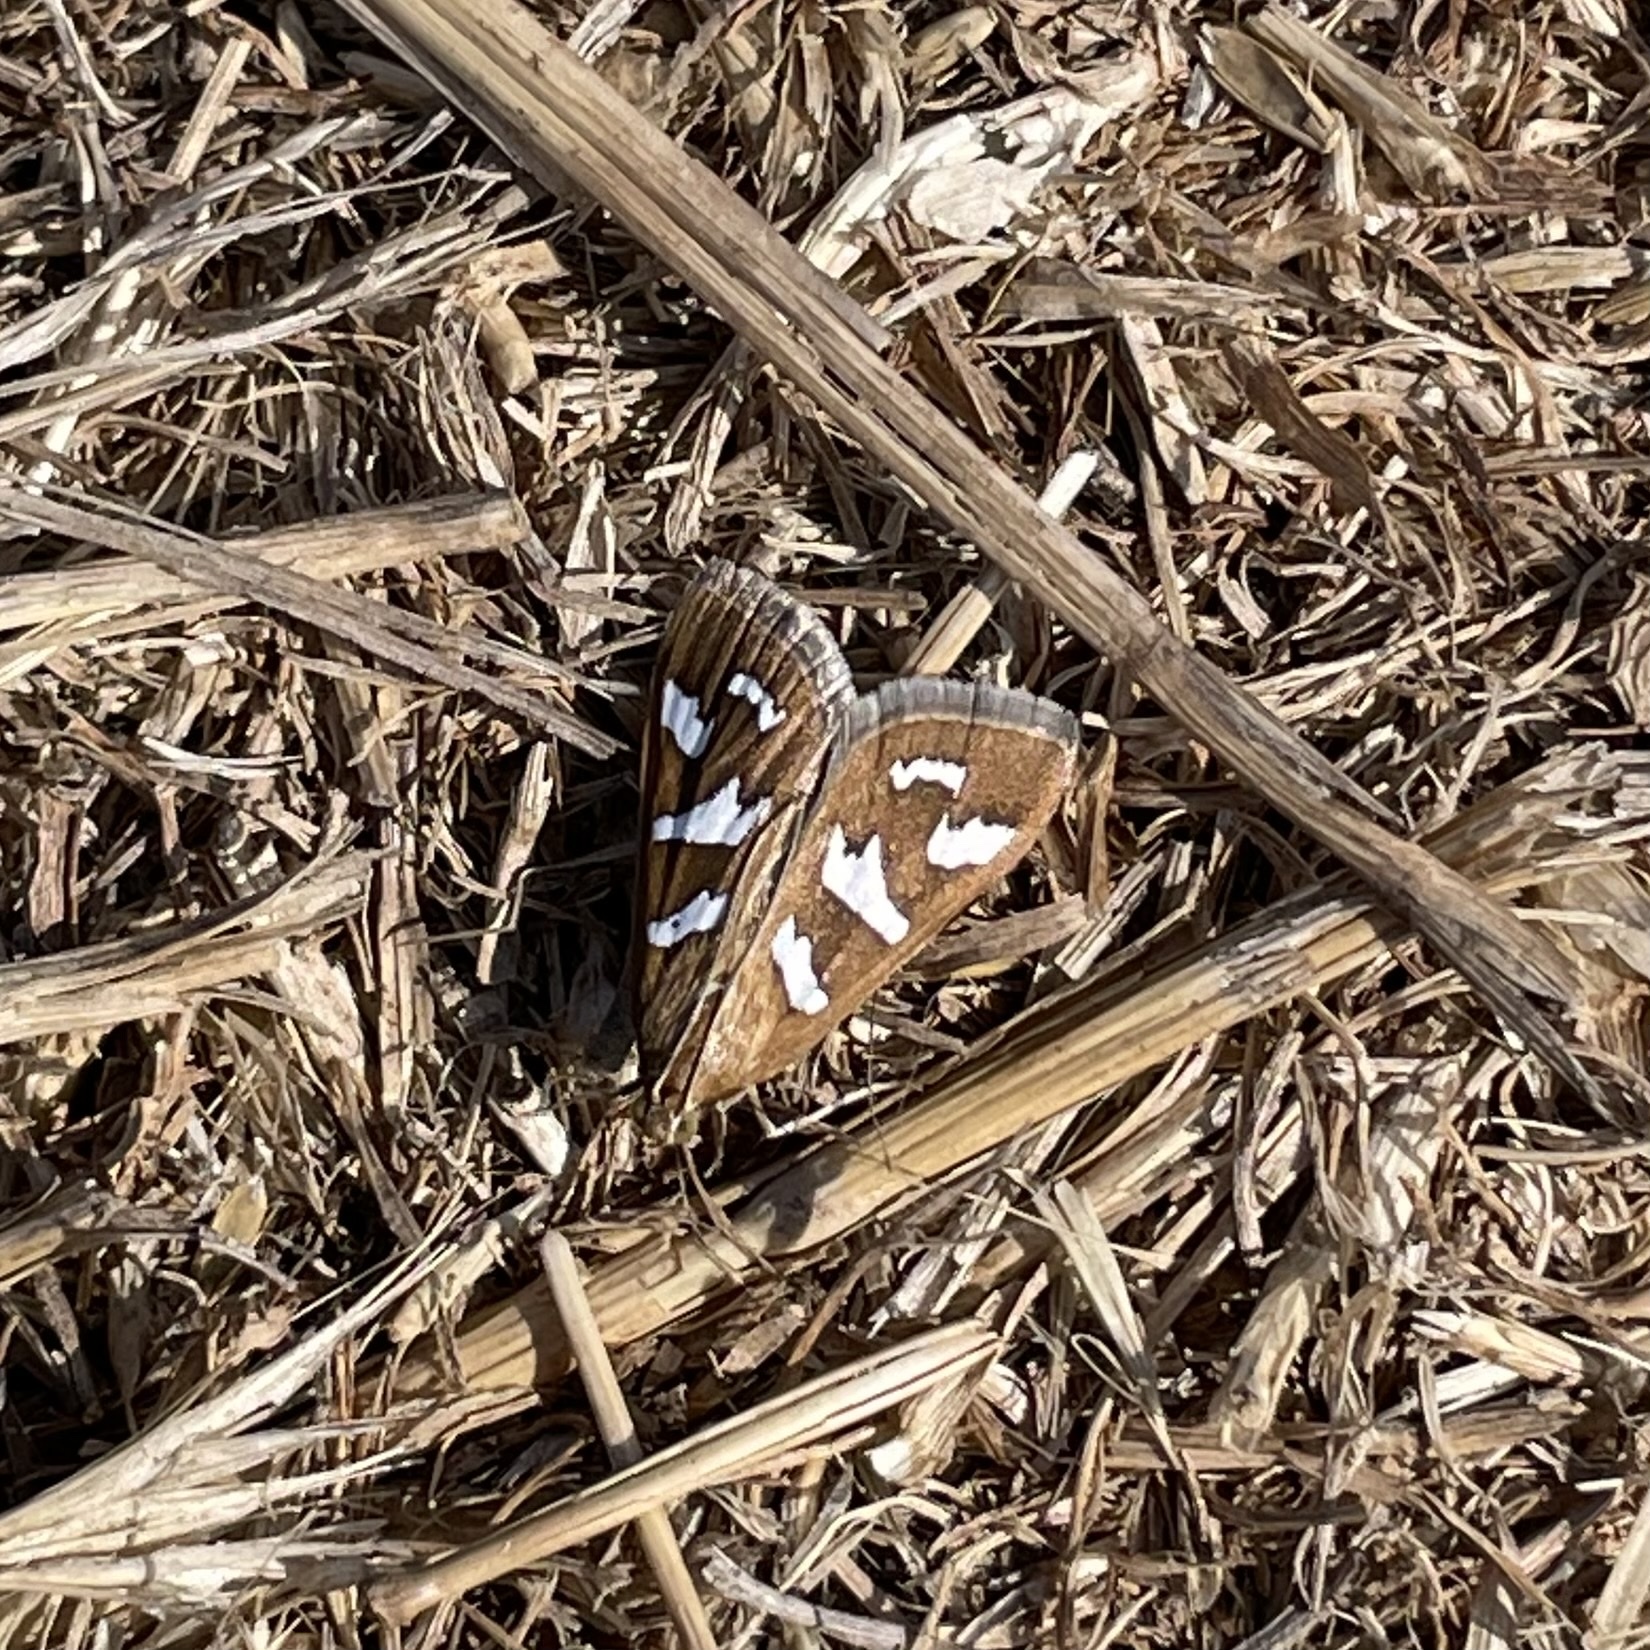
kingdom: Animalia
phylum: Arthropoda
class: Insecta
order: Lepidoptera
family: Crambidae
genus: Diastictis
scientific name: Diastictis fracturalis
